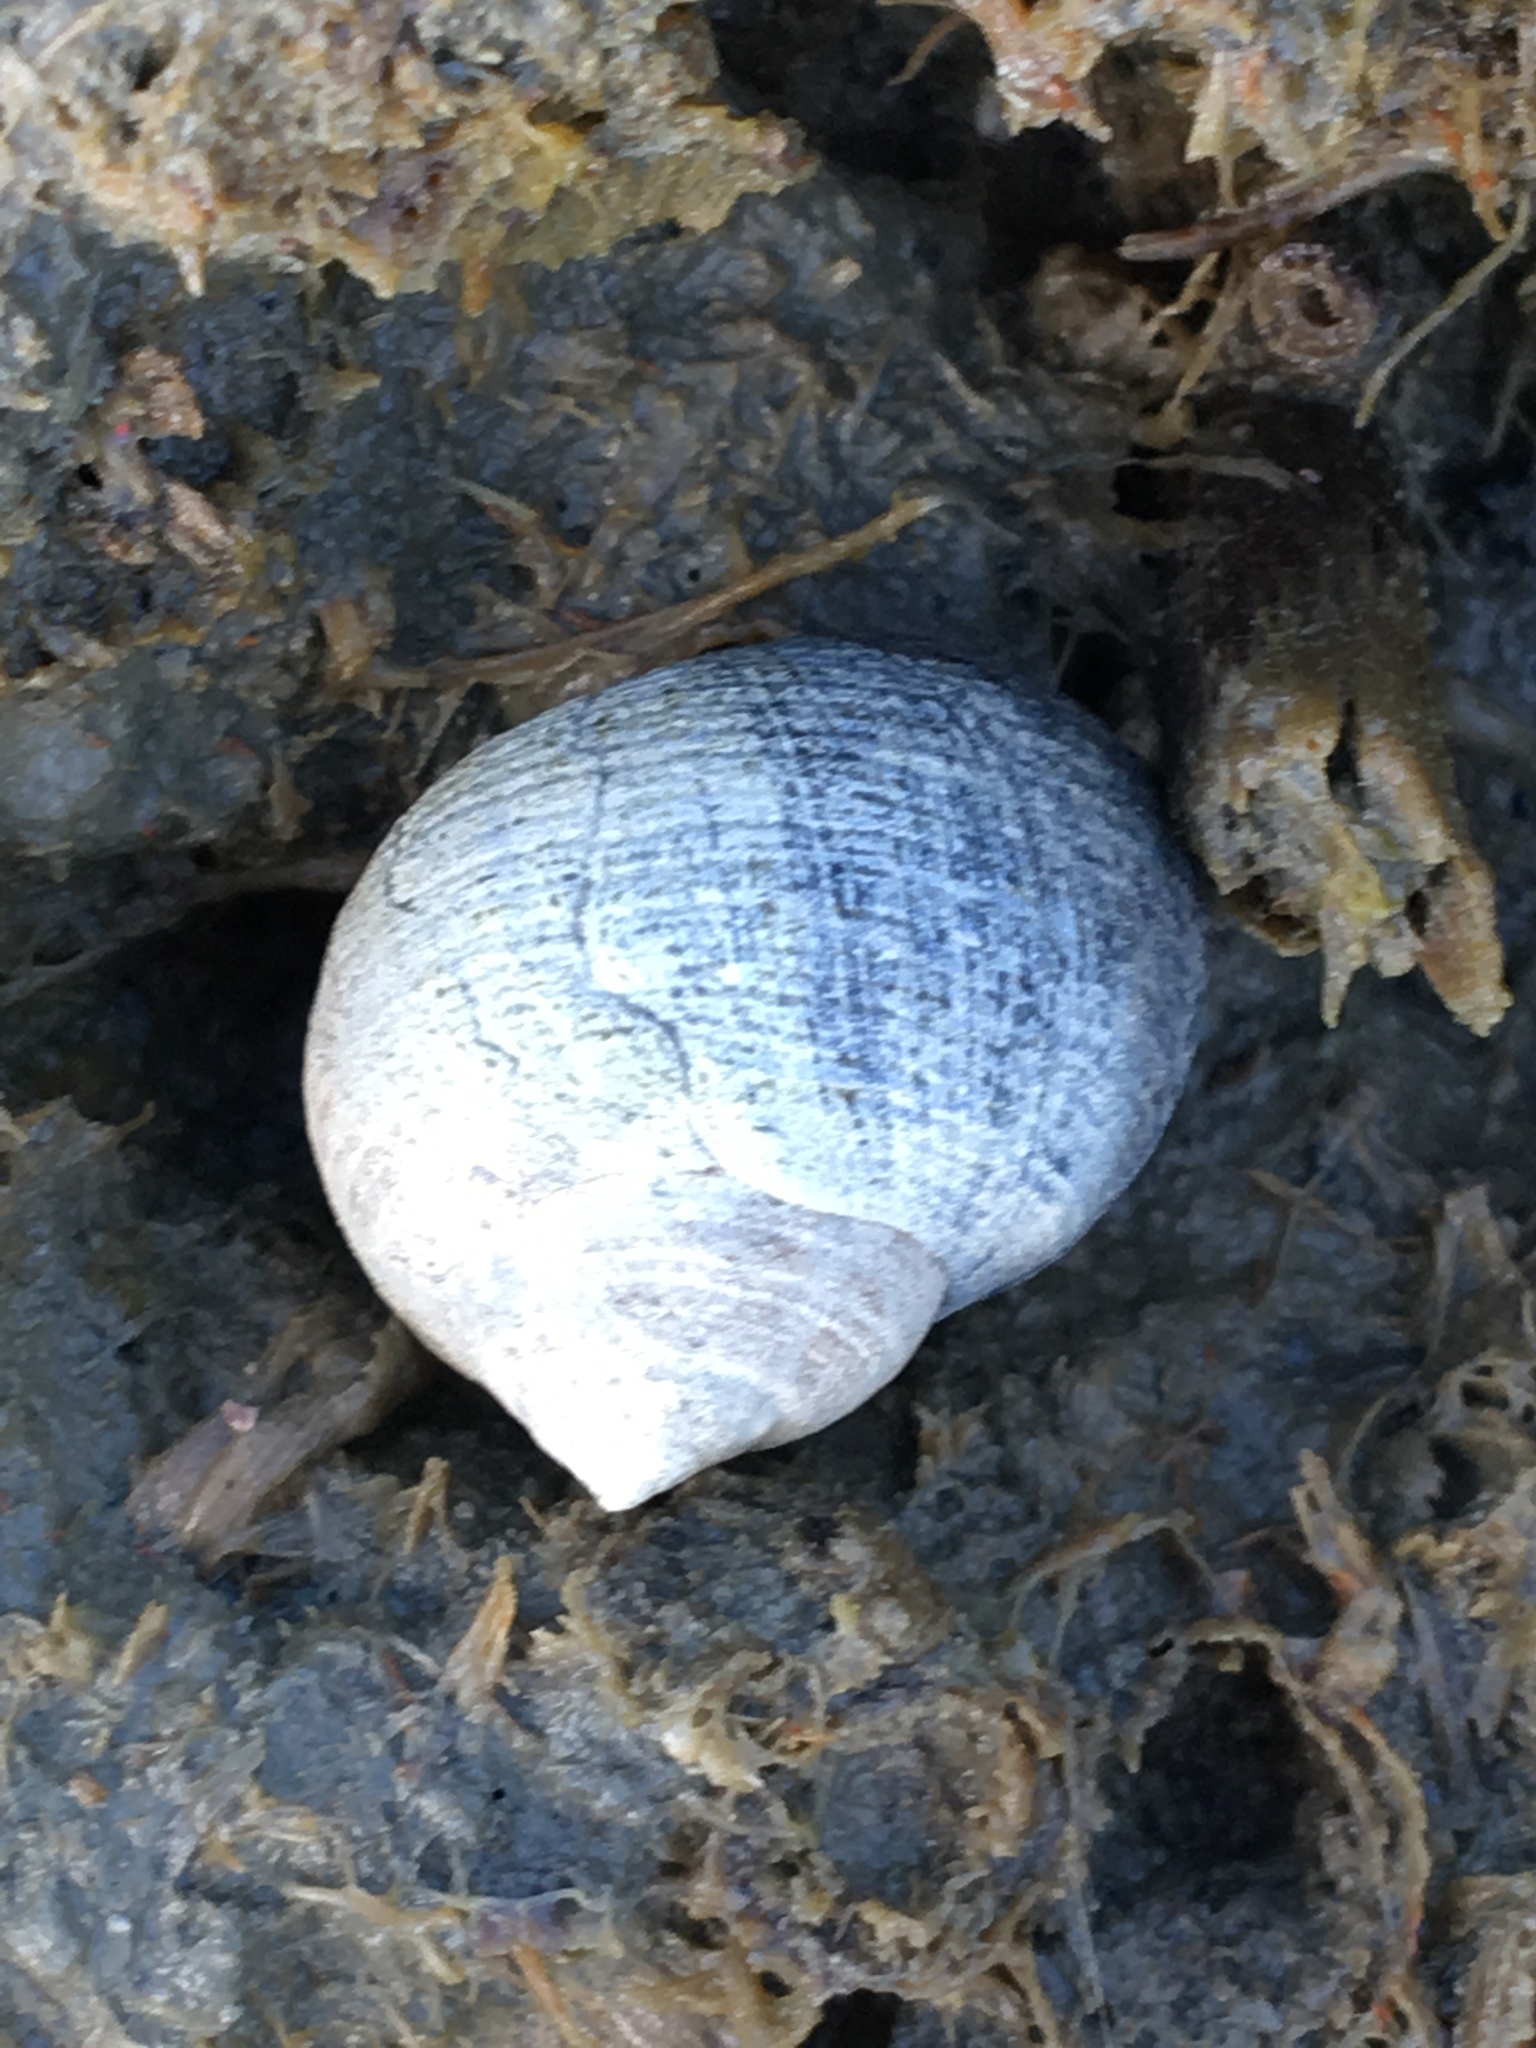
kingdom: Animalia
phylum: Mollusca
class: Gastropoda
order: Littorinimorpha
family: Littorinidae
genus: Littorina
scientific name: Littorina littorea
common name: Common periwinkle
